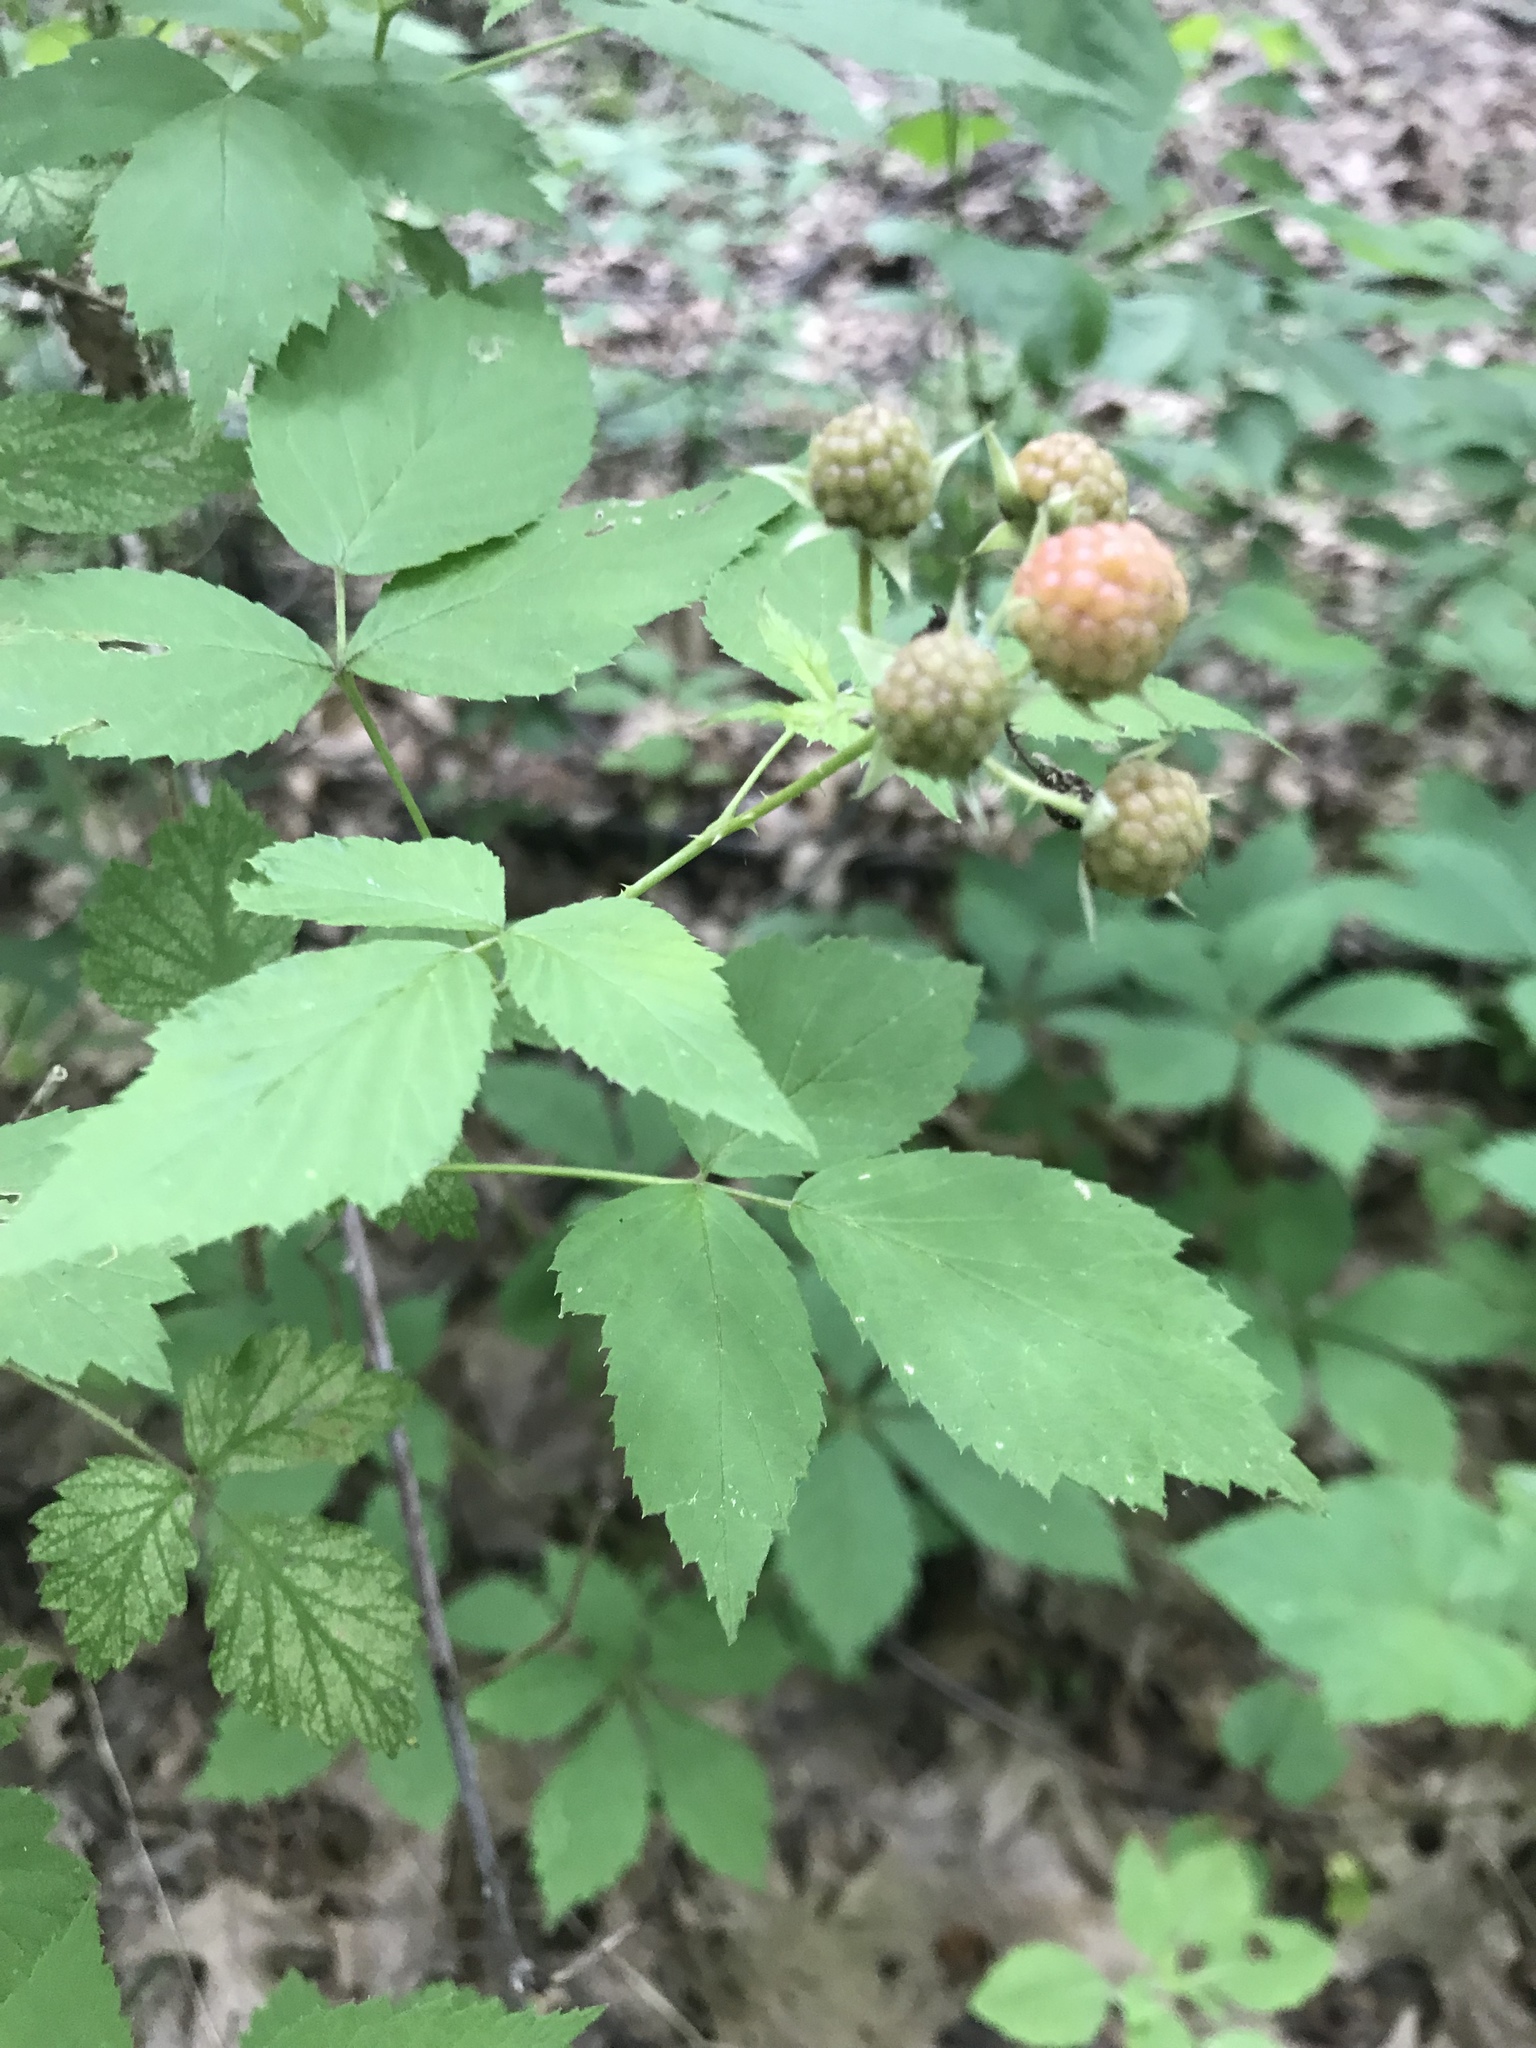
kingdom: Plantae
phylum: Tracheophyta
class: Magnoliopsida
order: Rosales
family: Rosaceae
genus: Rubus
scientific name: Rubus occidentalis
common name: Black raspberry
